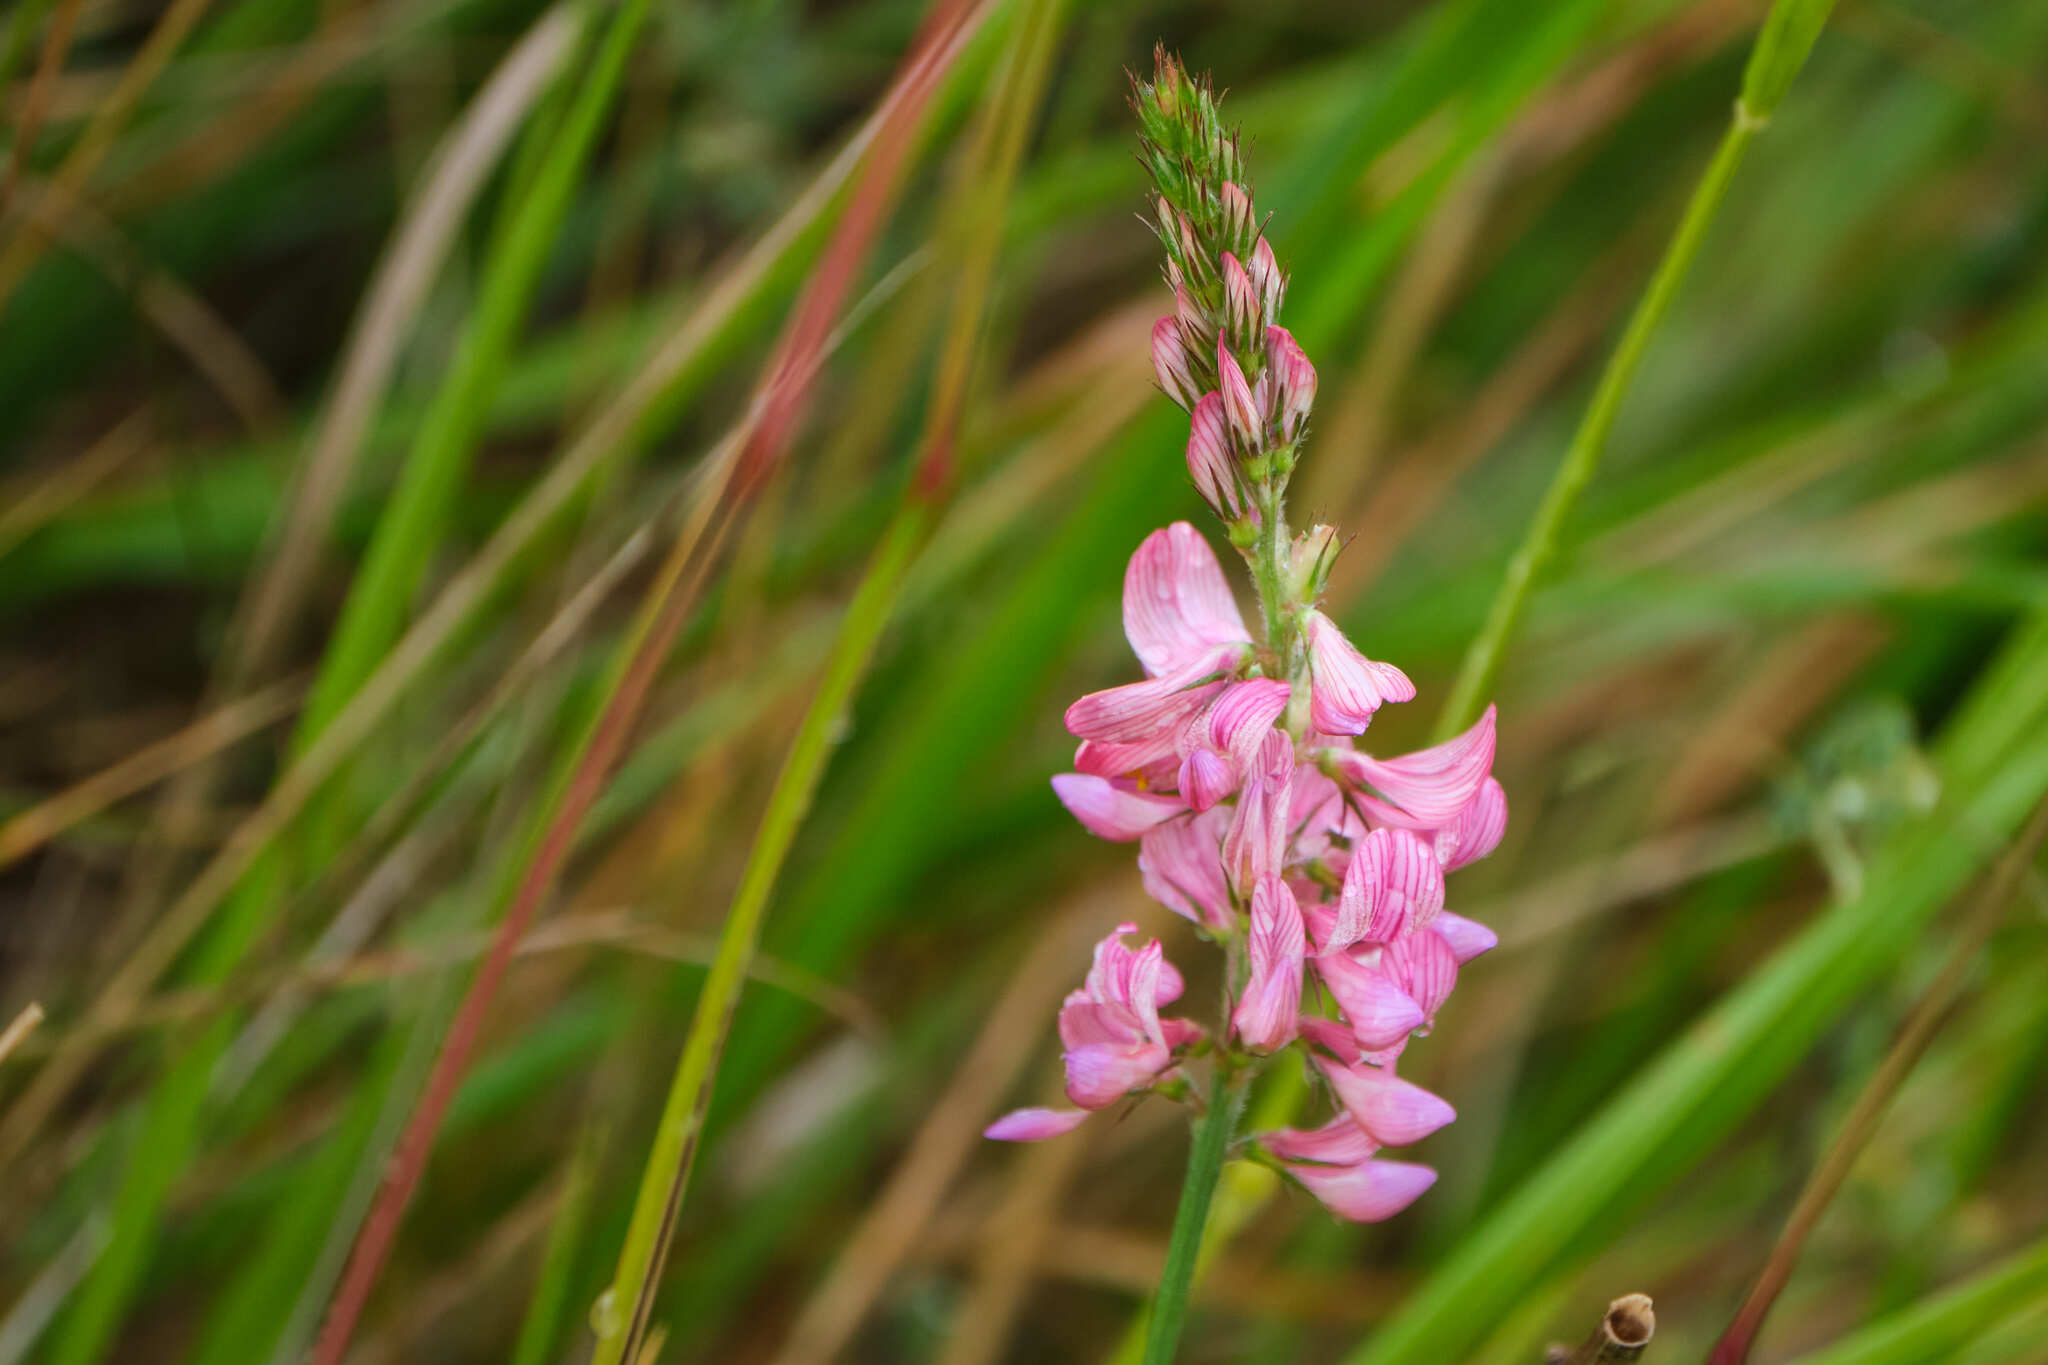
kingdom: Plantae
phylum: Tracheophyta
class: Magnoliopsida
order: Fabales
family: Fabaceae
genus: Onobrychis
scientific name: Onobrychis viciifolia
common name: Sainfoin
